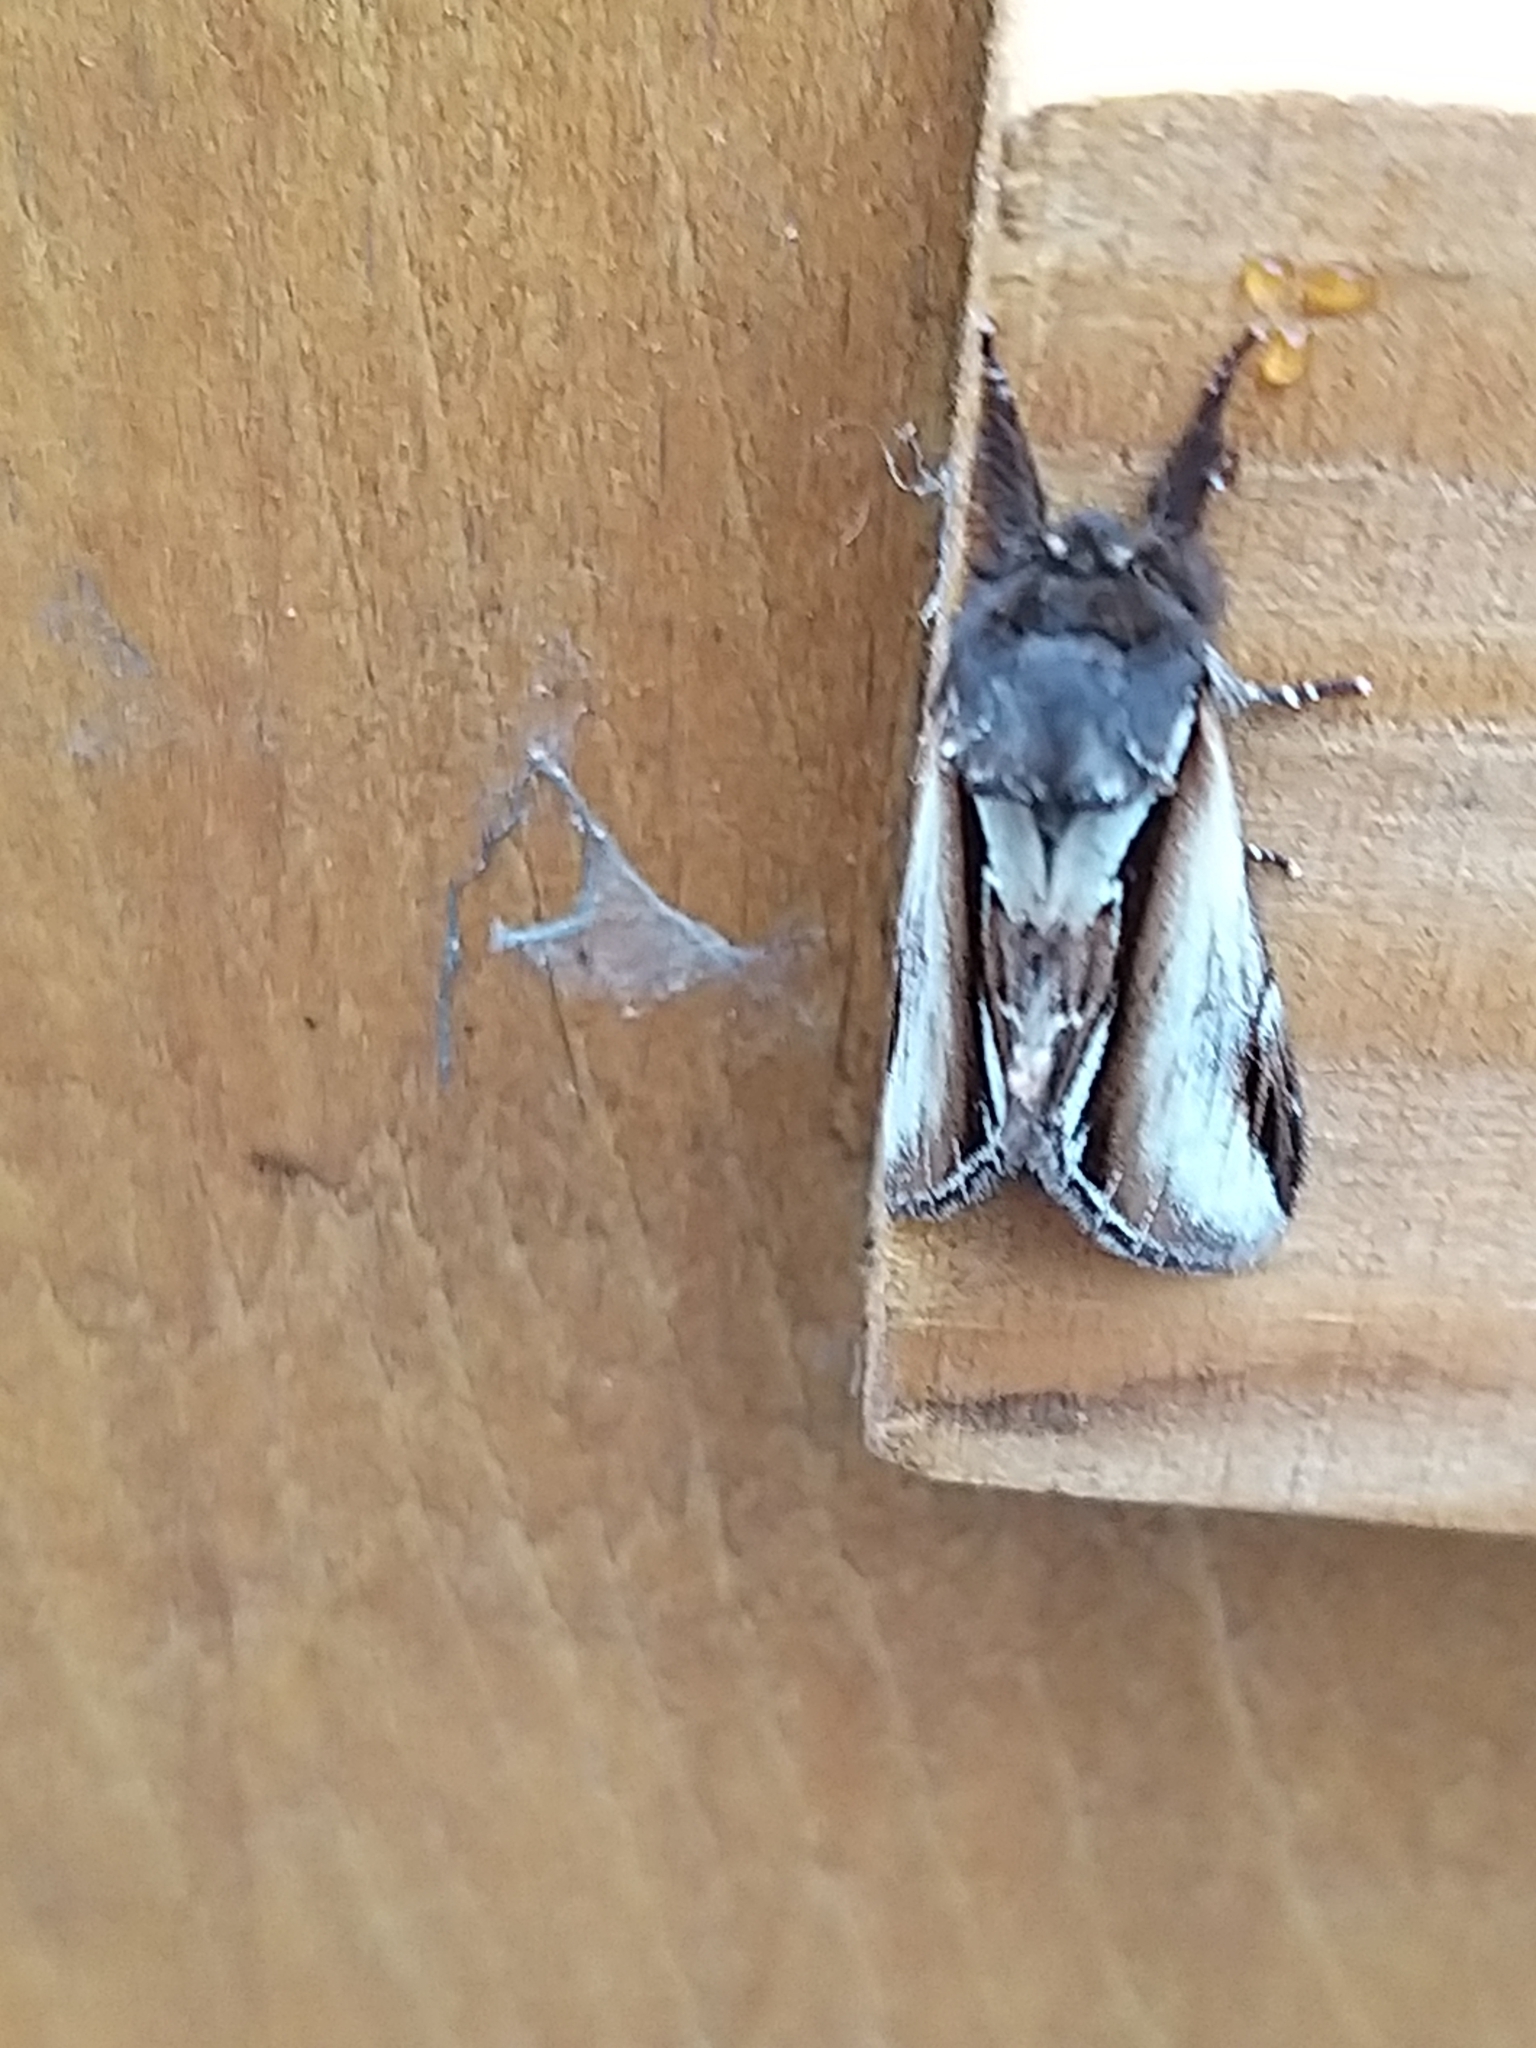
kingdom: Animalia
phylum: Arthropoda
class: Insecta
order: Lepidoptera
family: Notodontidae
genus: Pheosia
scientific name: Pheosia gnoma
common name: Lesser swallow prominent
